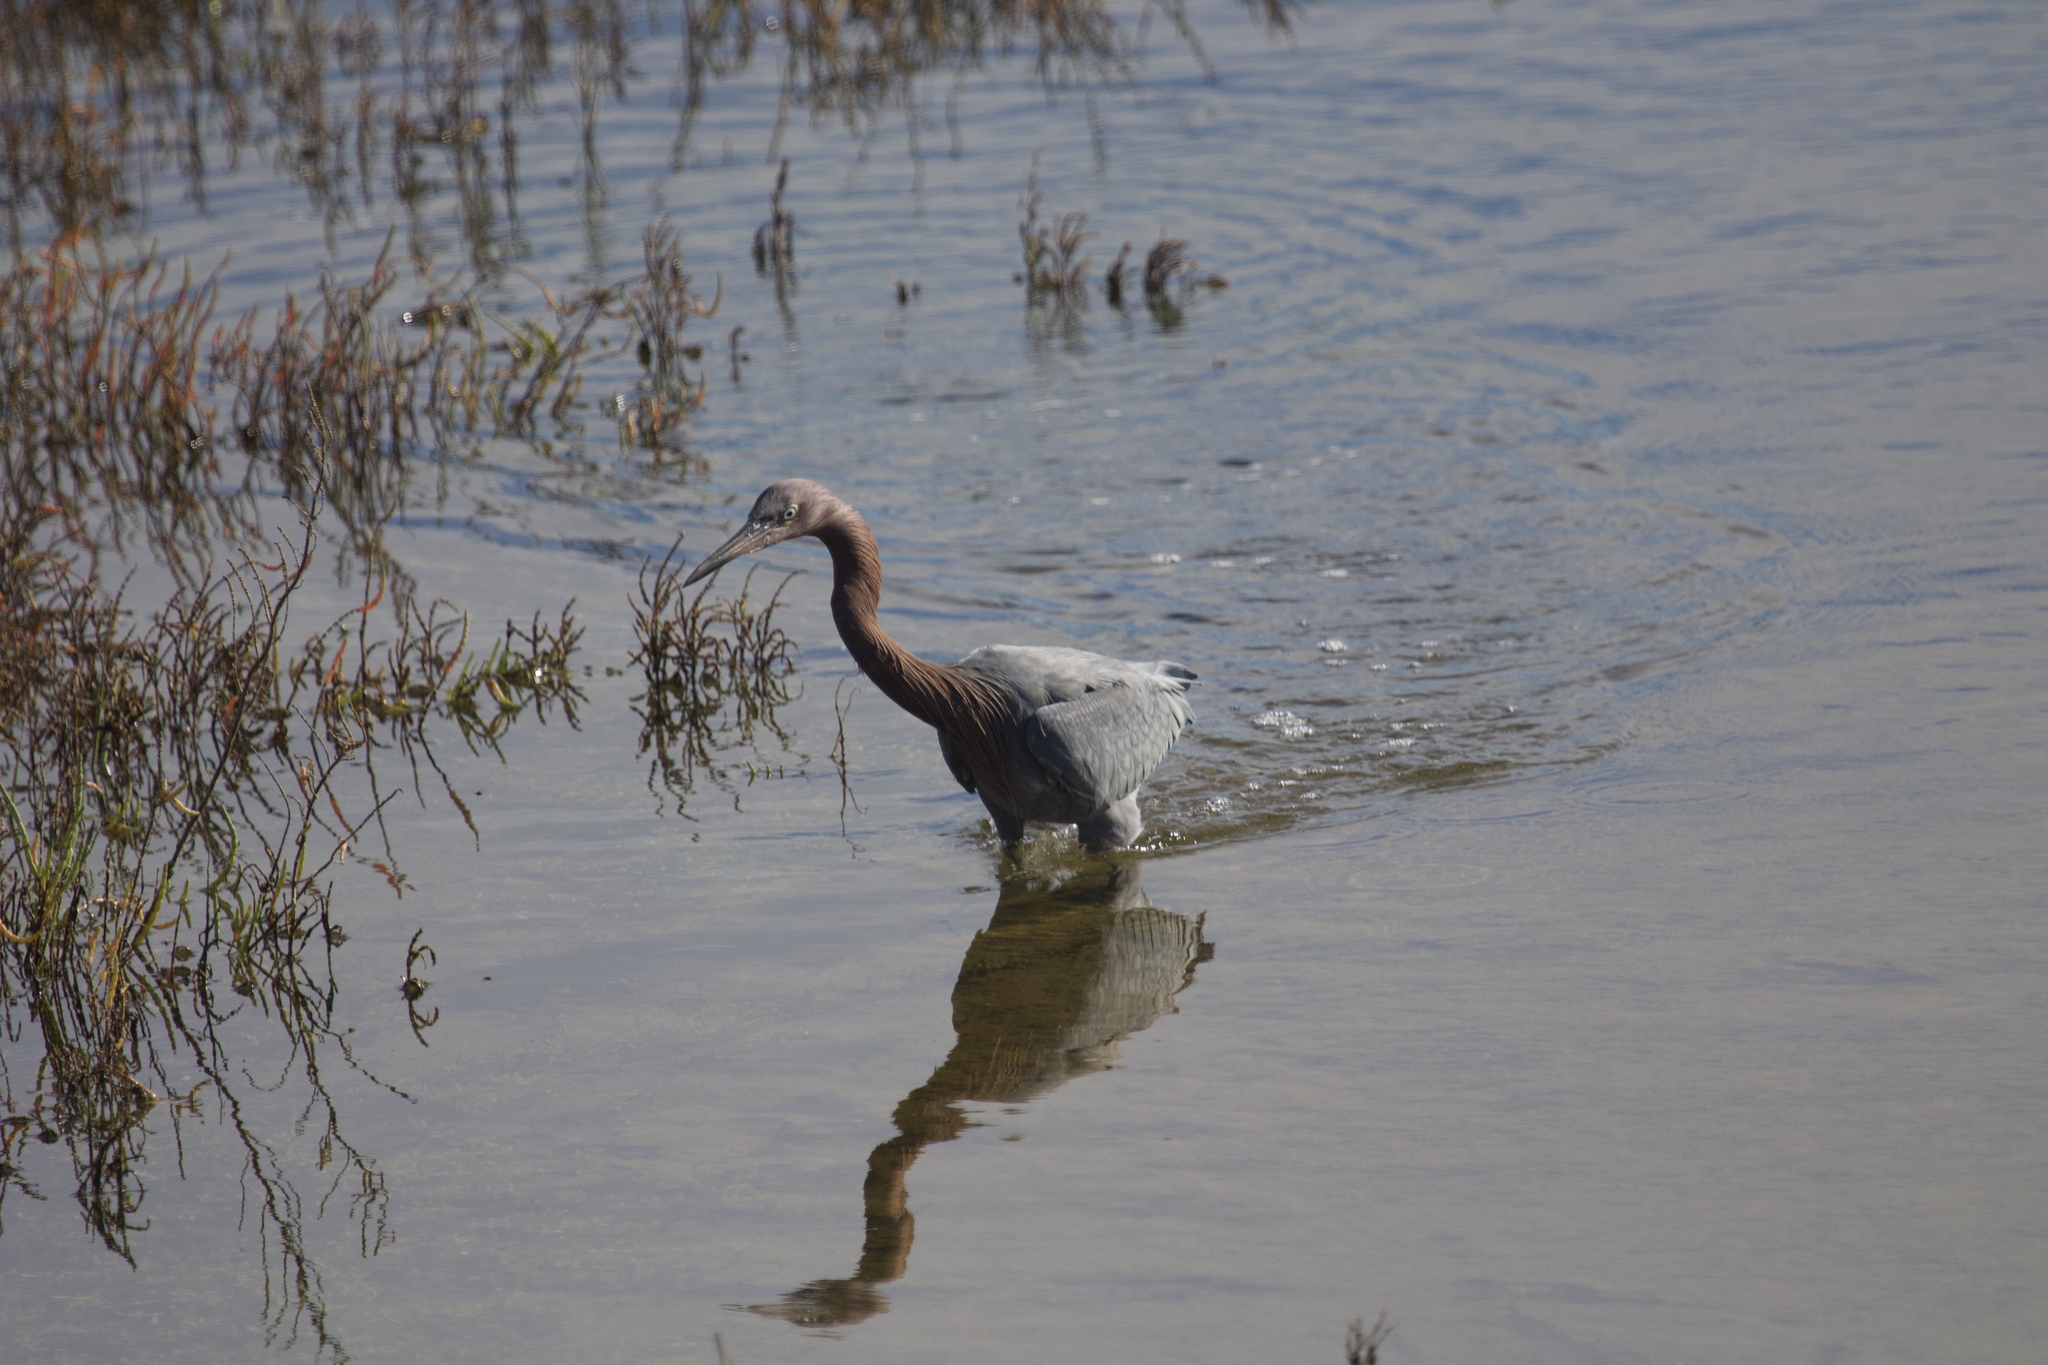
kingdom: Animalia
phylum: Chordata
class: Aves
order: Pelecaniformes
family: Ardeidae
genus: Egretta
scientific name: Egretta rufescens
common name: Reddish egret
